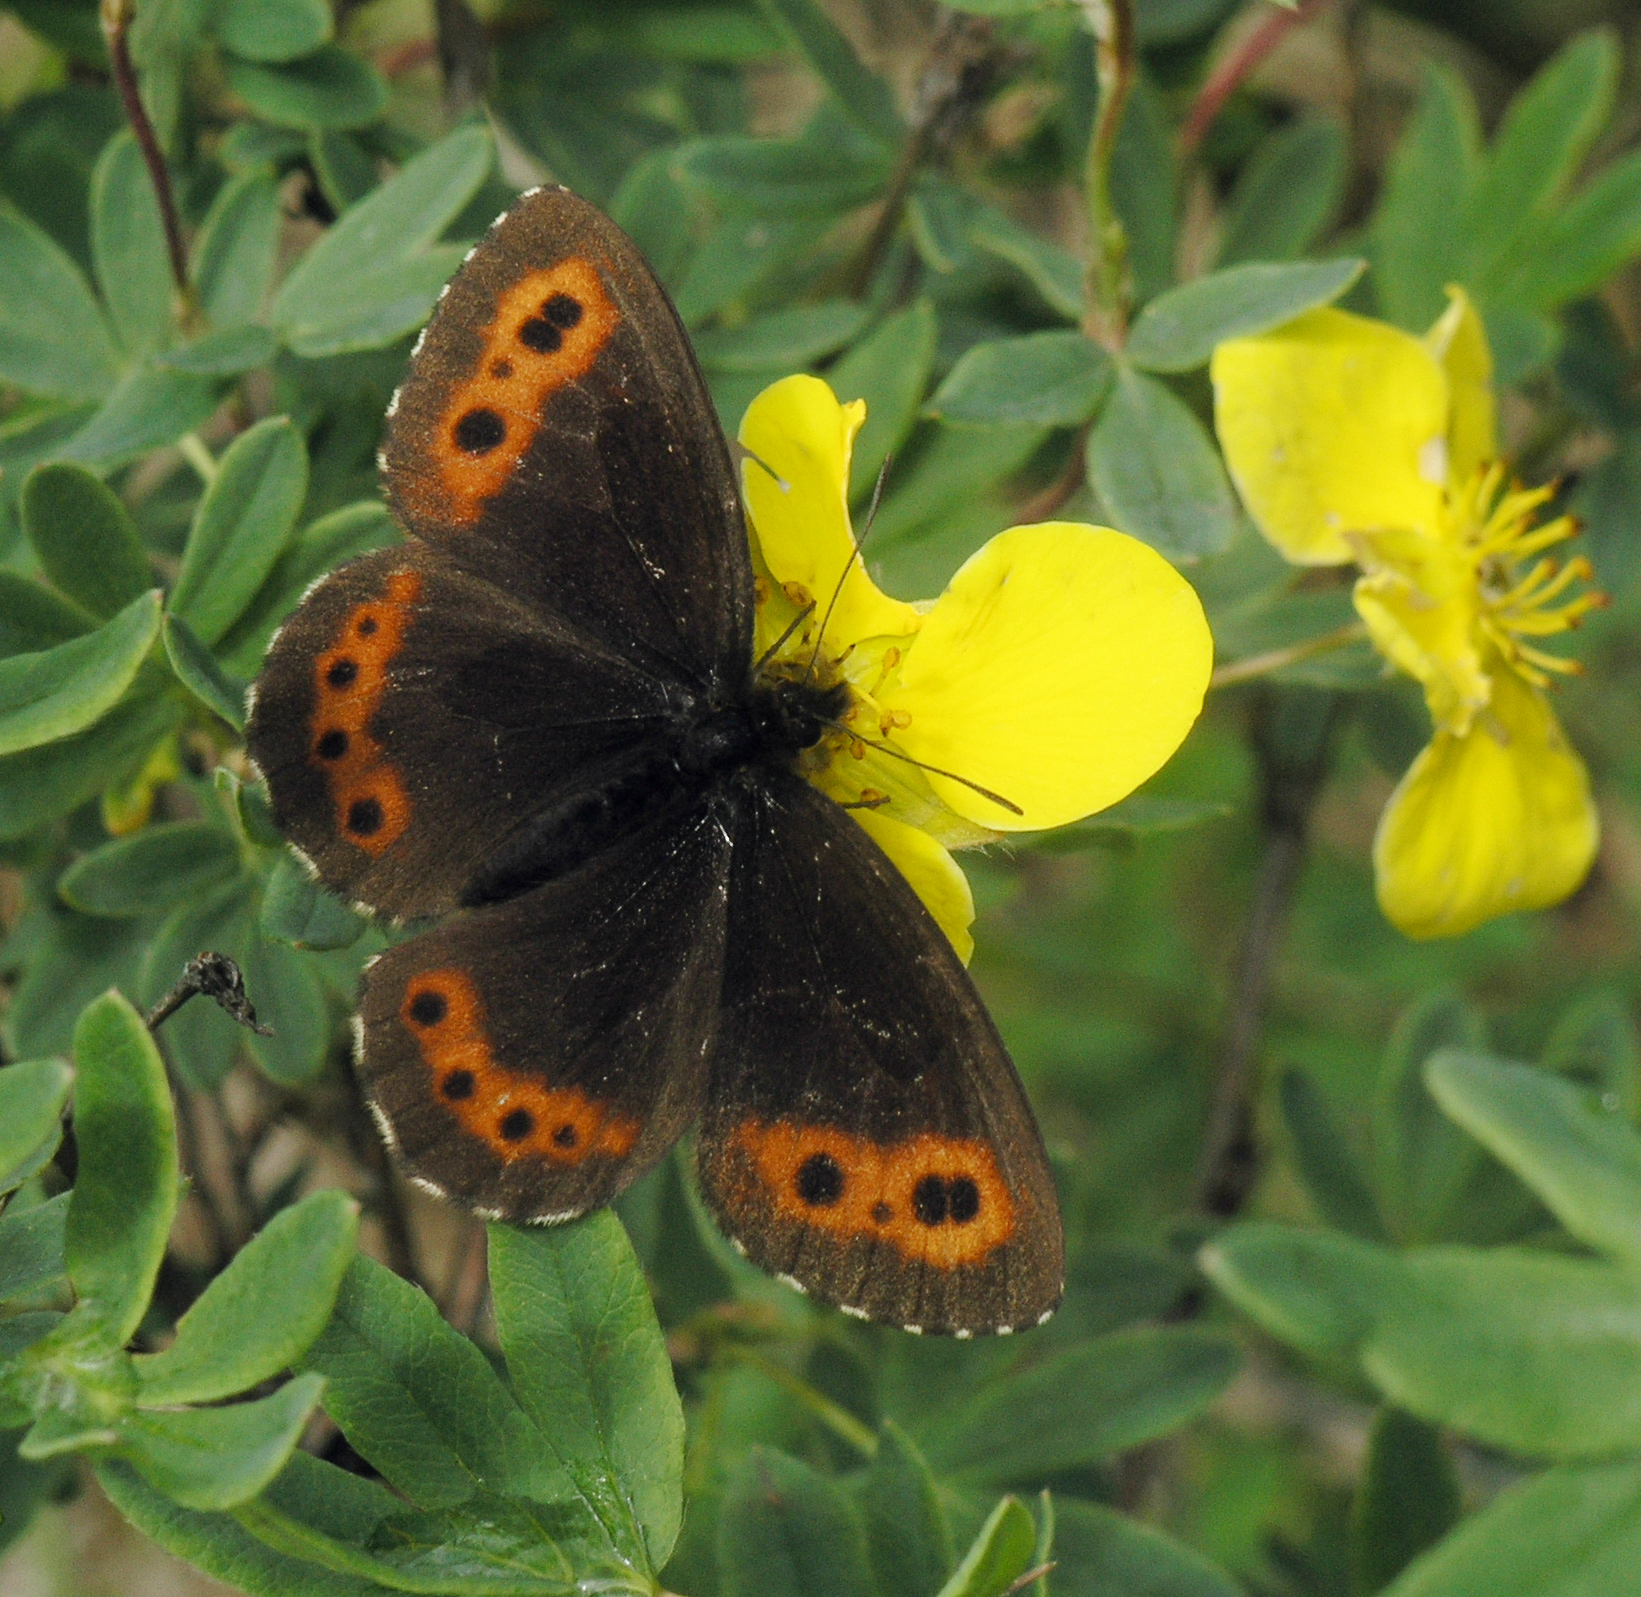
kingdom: Animalia
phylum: Arthropoda
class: Insecta
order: Lepidoptera
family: Nymphalidae
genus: Erebia
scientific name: Erebia jeniseiensis
